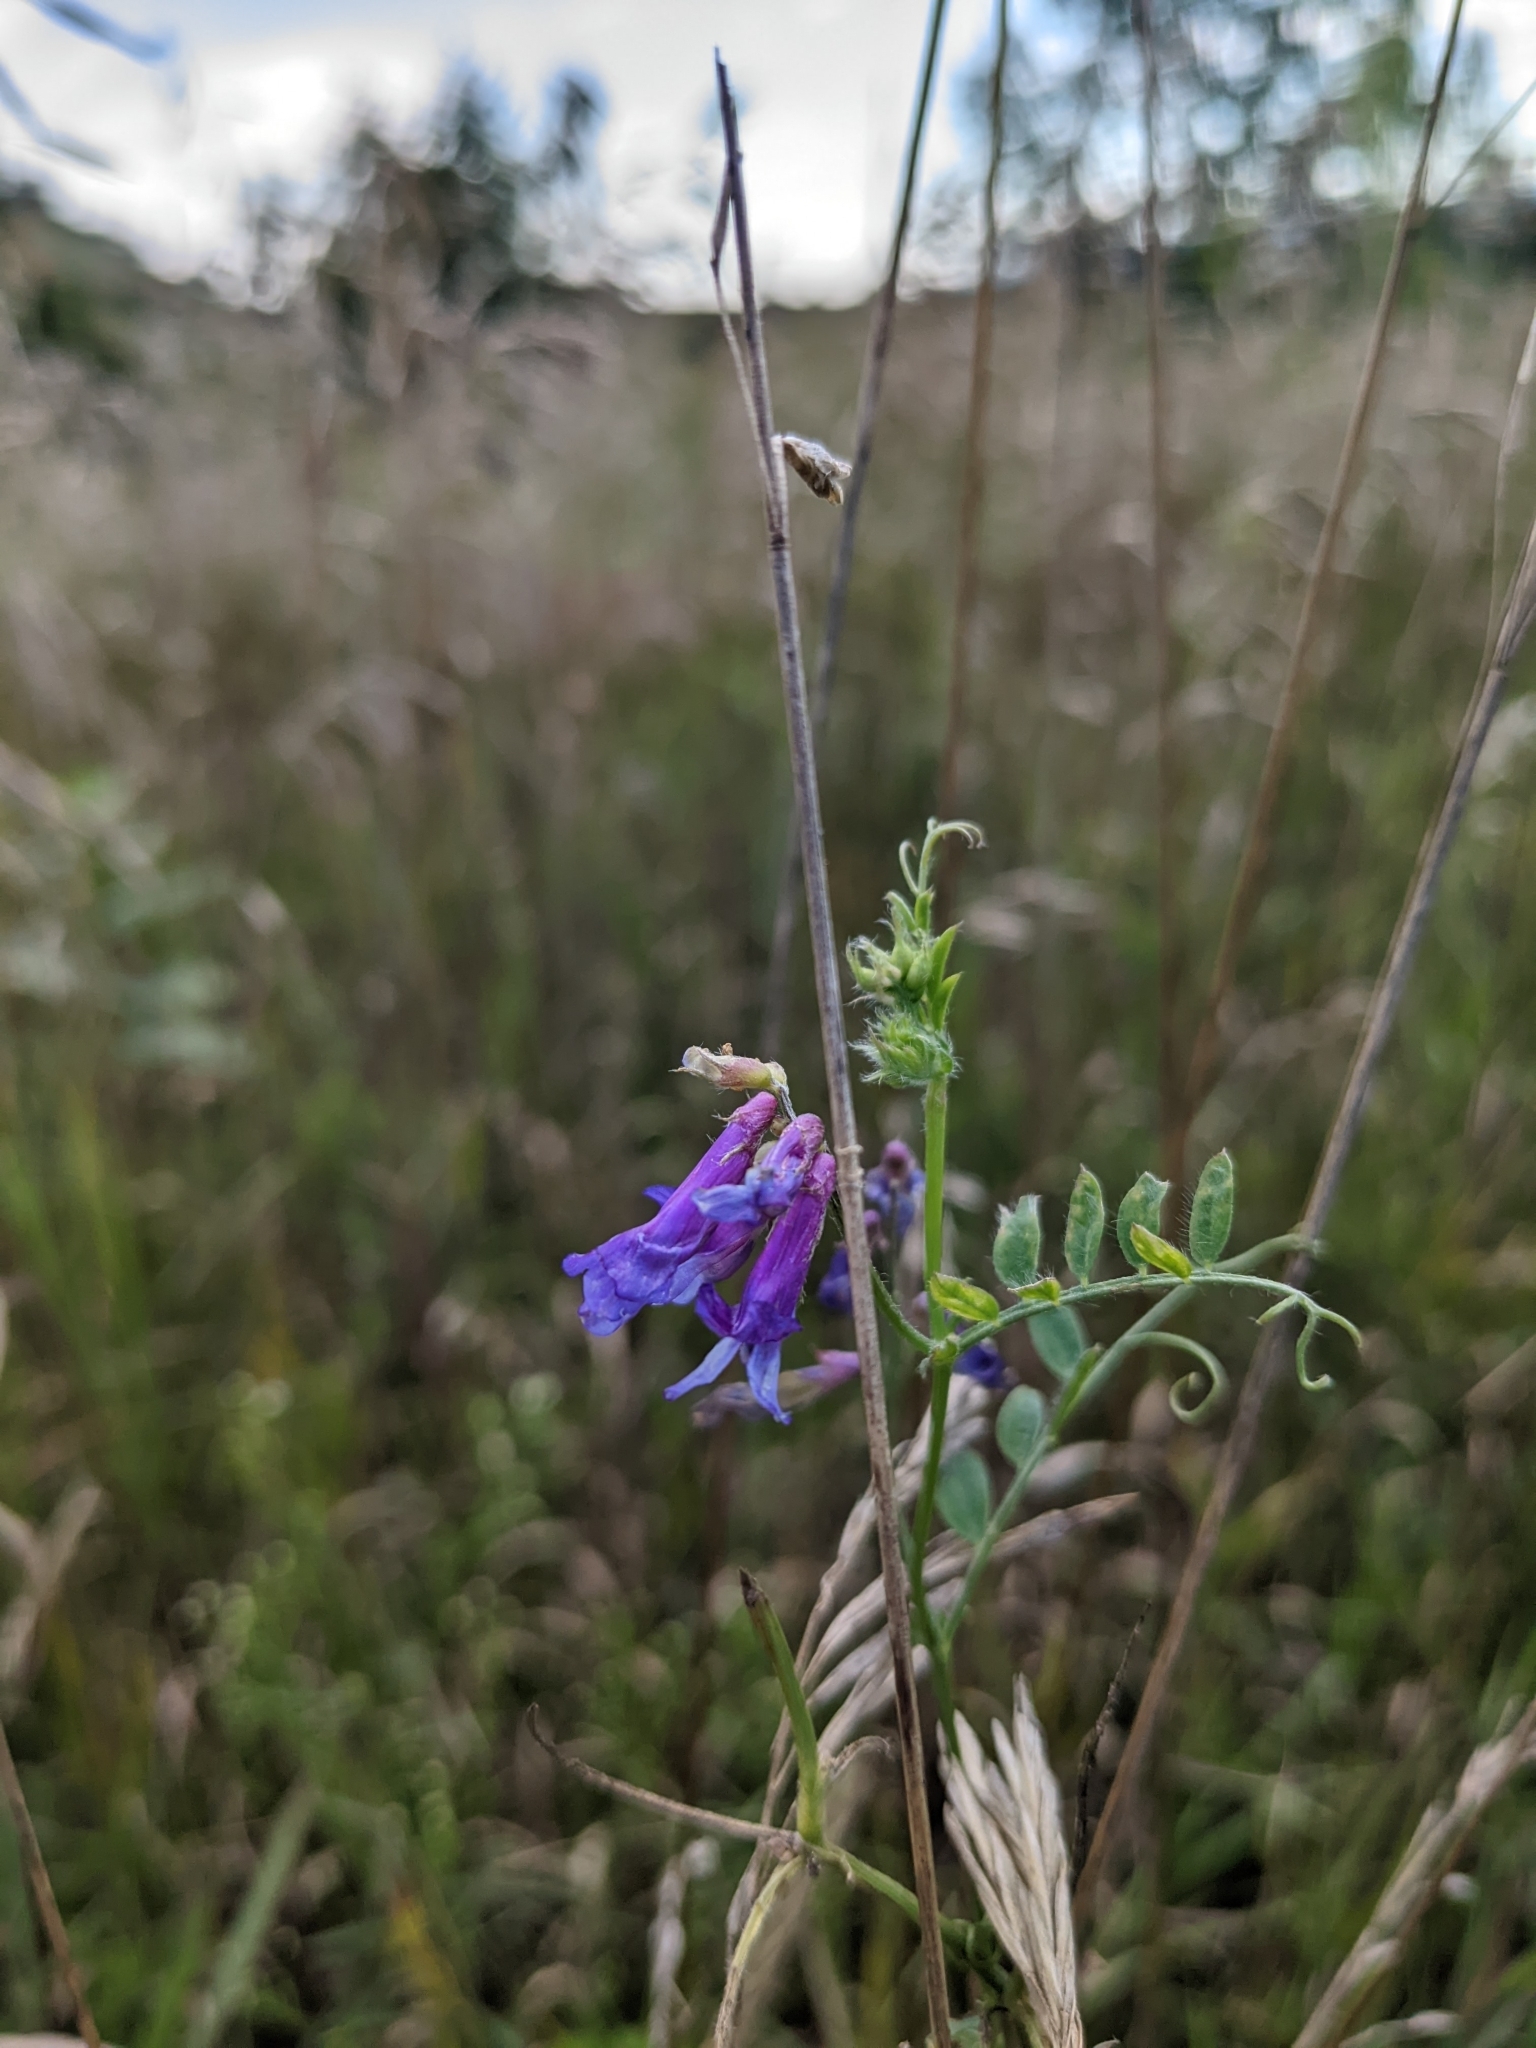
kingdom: Plantae
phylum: Tracheophyta
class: Magnoliopsida
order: Fabales
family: Fabaceae
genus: Vicia
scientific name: Vicia villosa
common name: Fodder vetch
